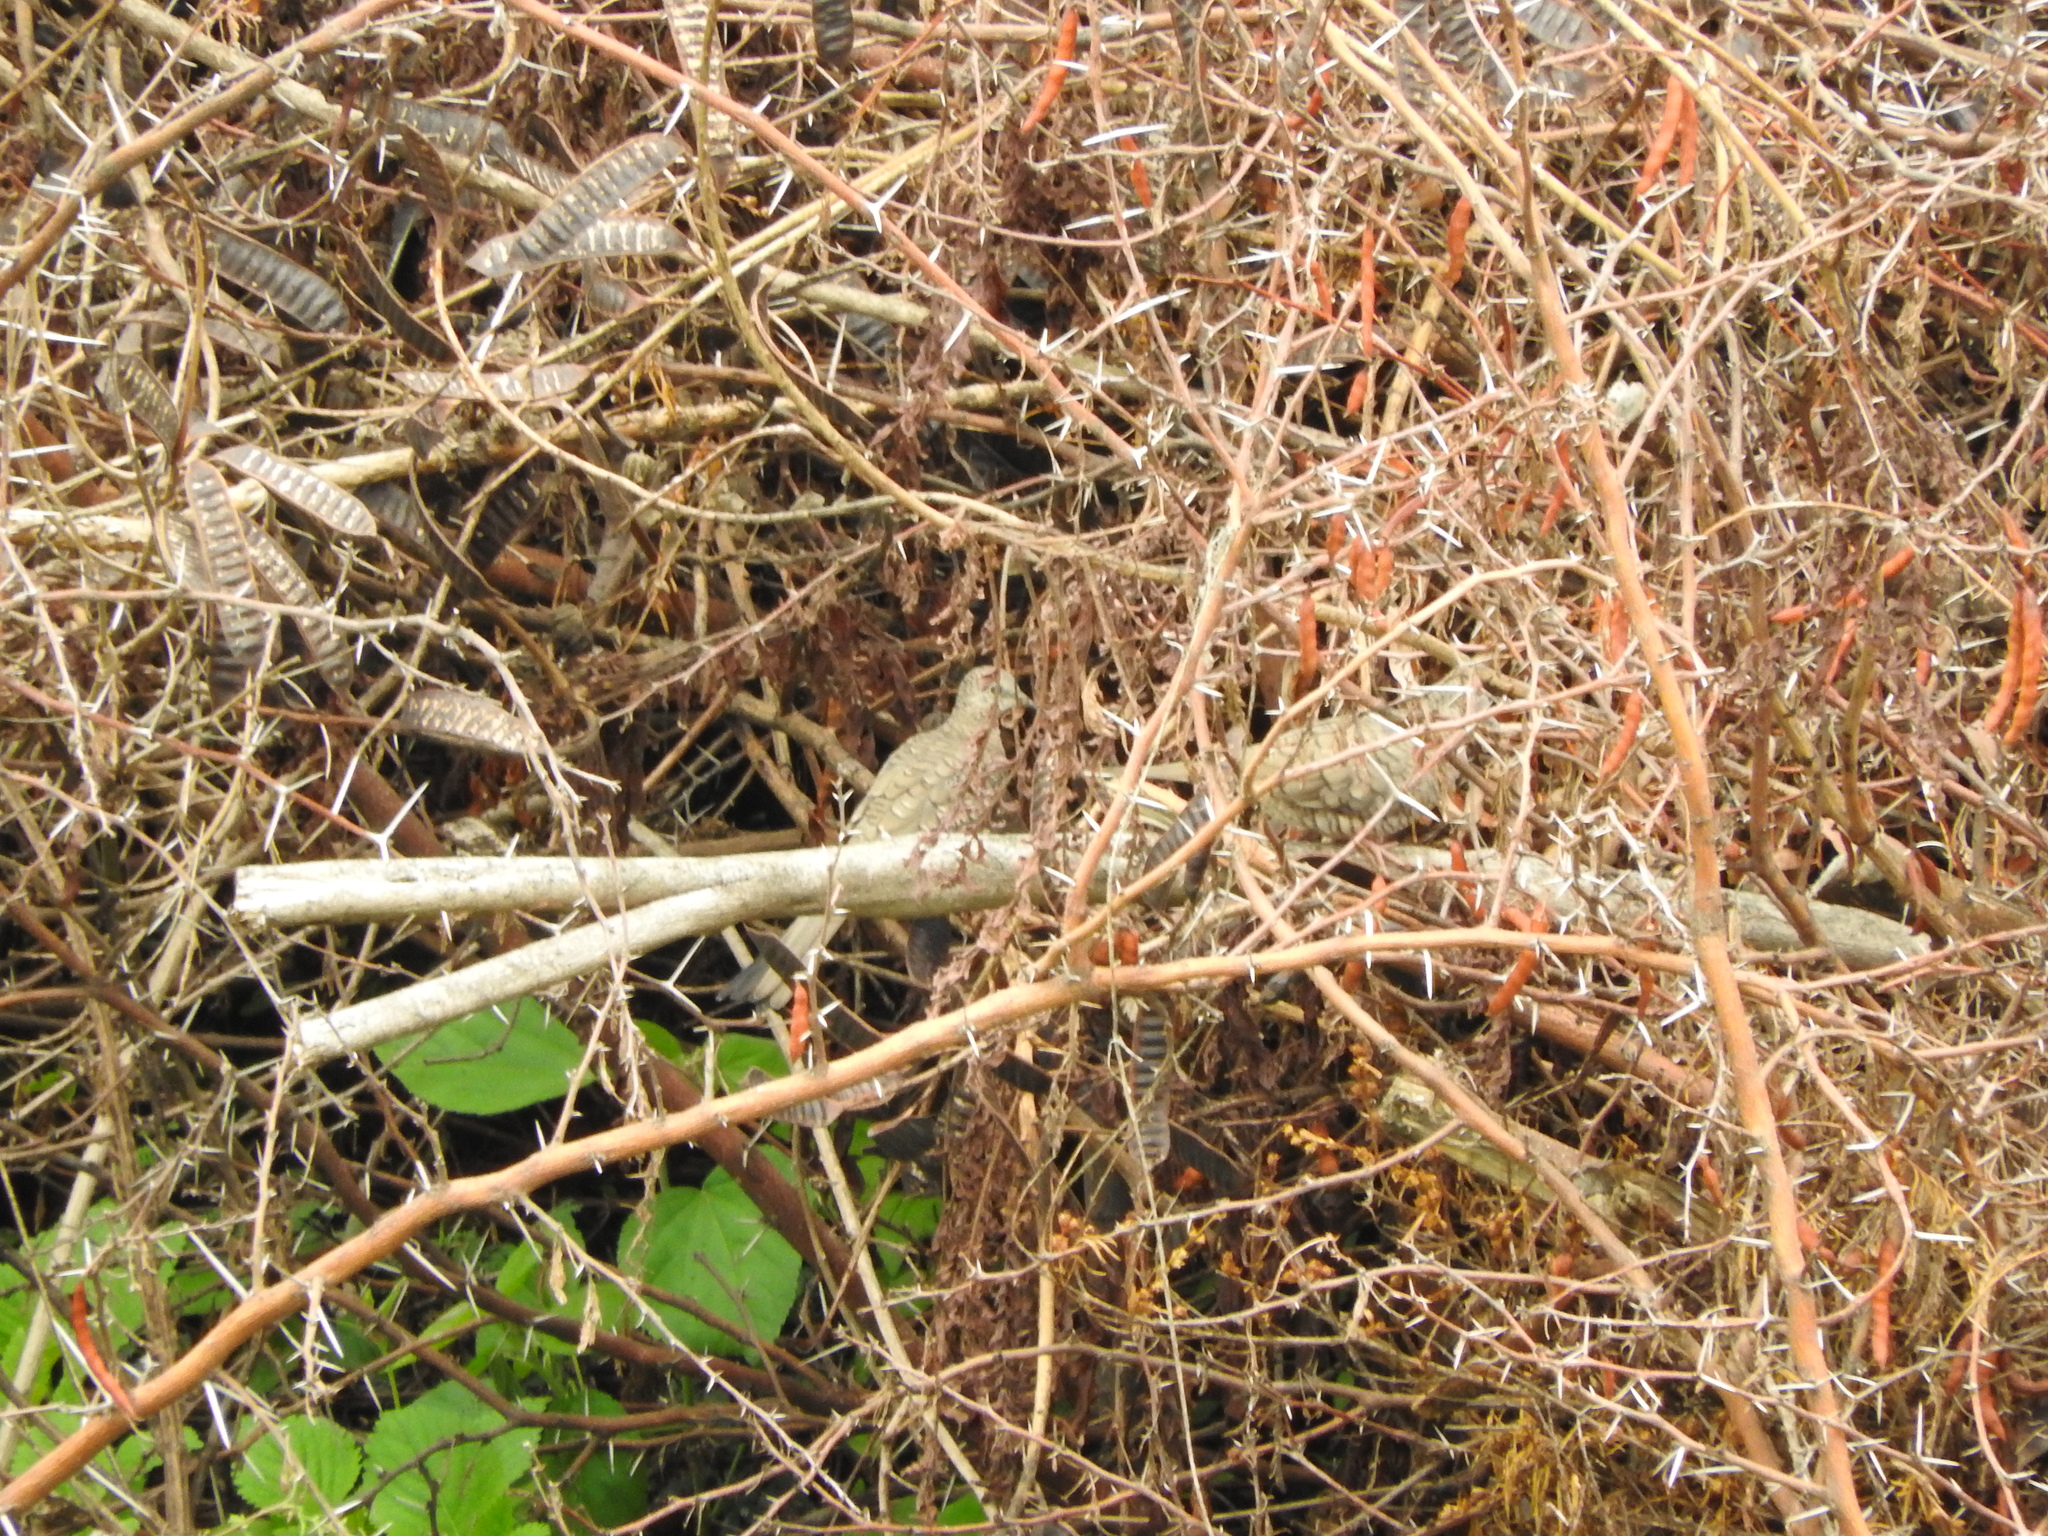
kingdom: Animalia
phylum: Chordata
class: Aves
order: Columbiformes
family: Columbidae
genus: Columbina
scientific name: Columbina inca
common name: Inca dove
